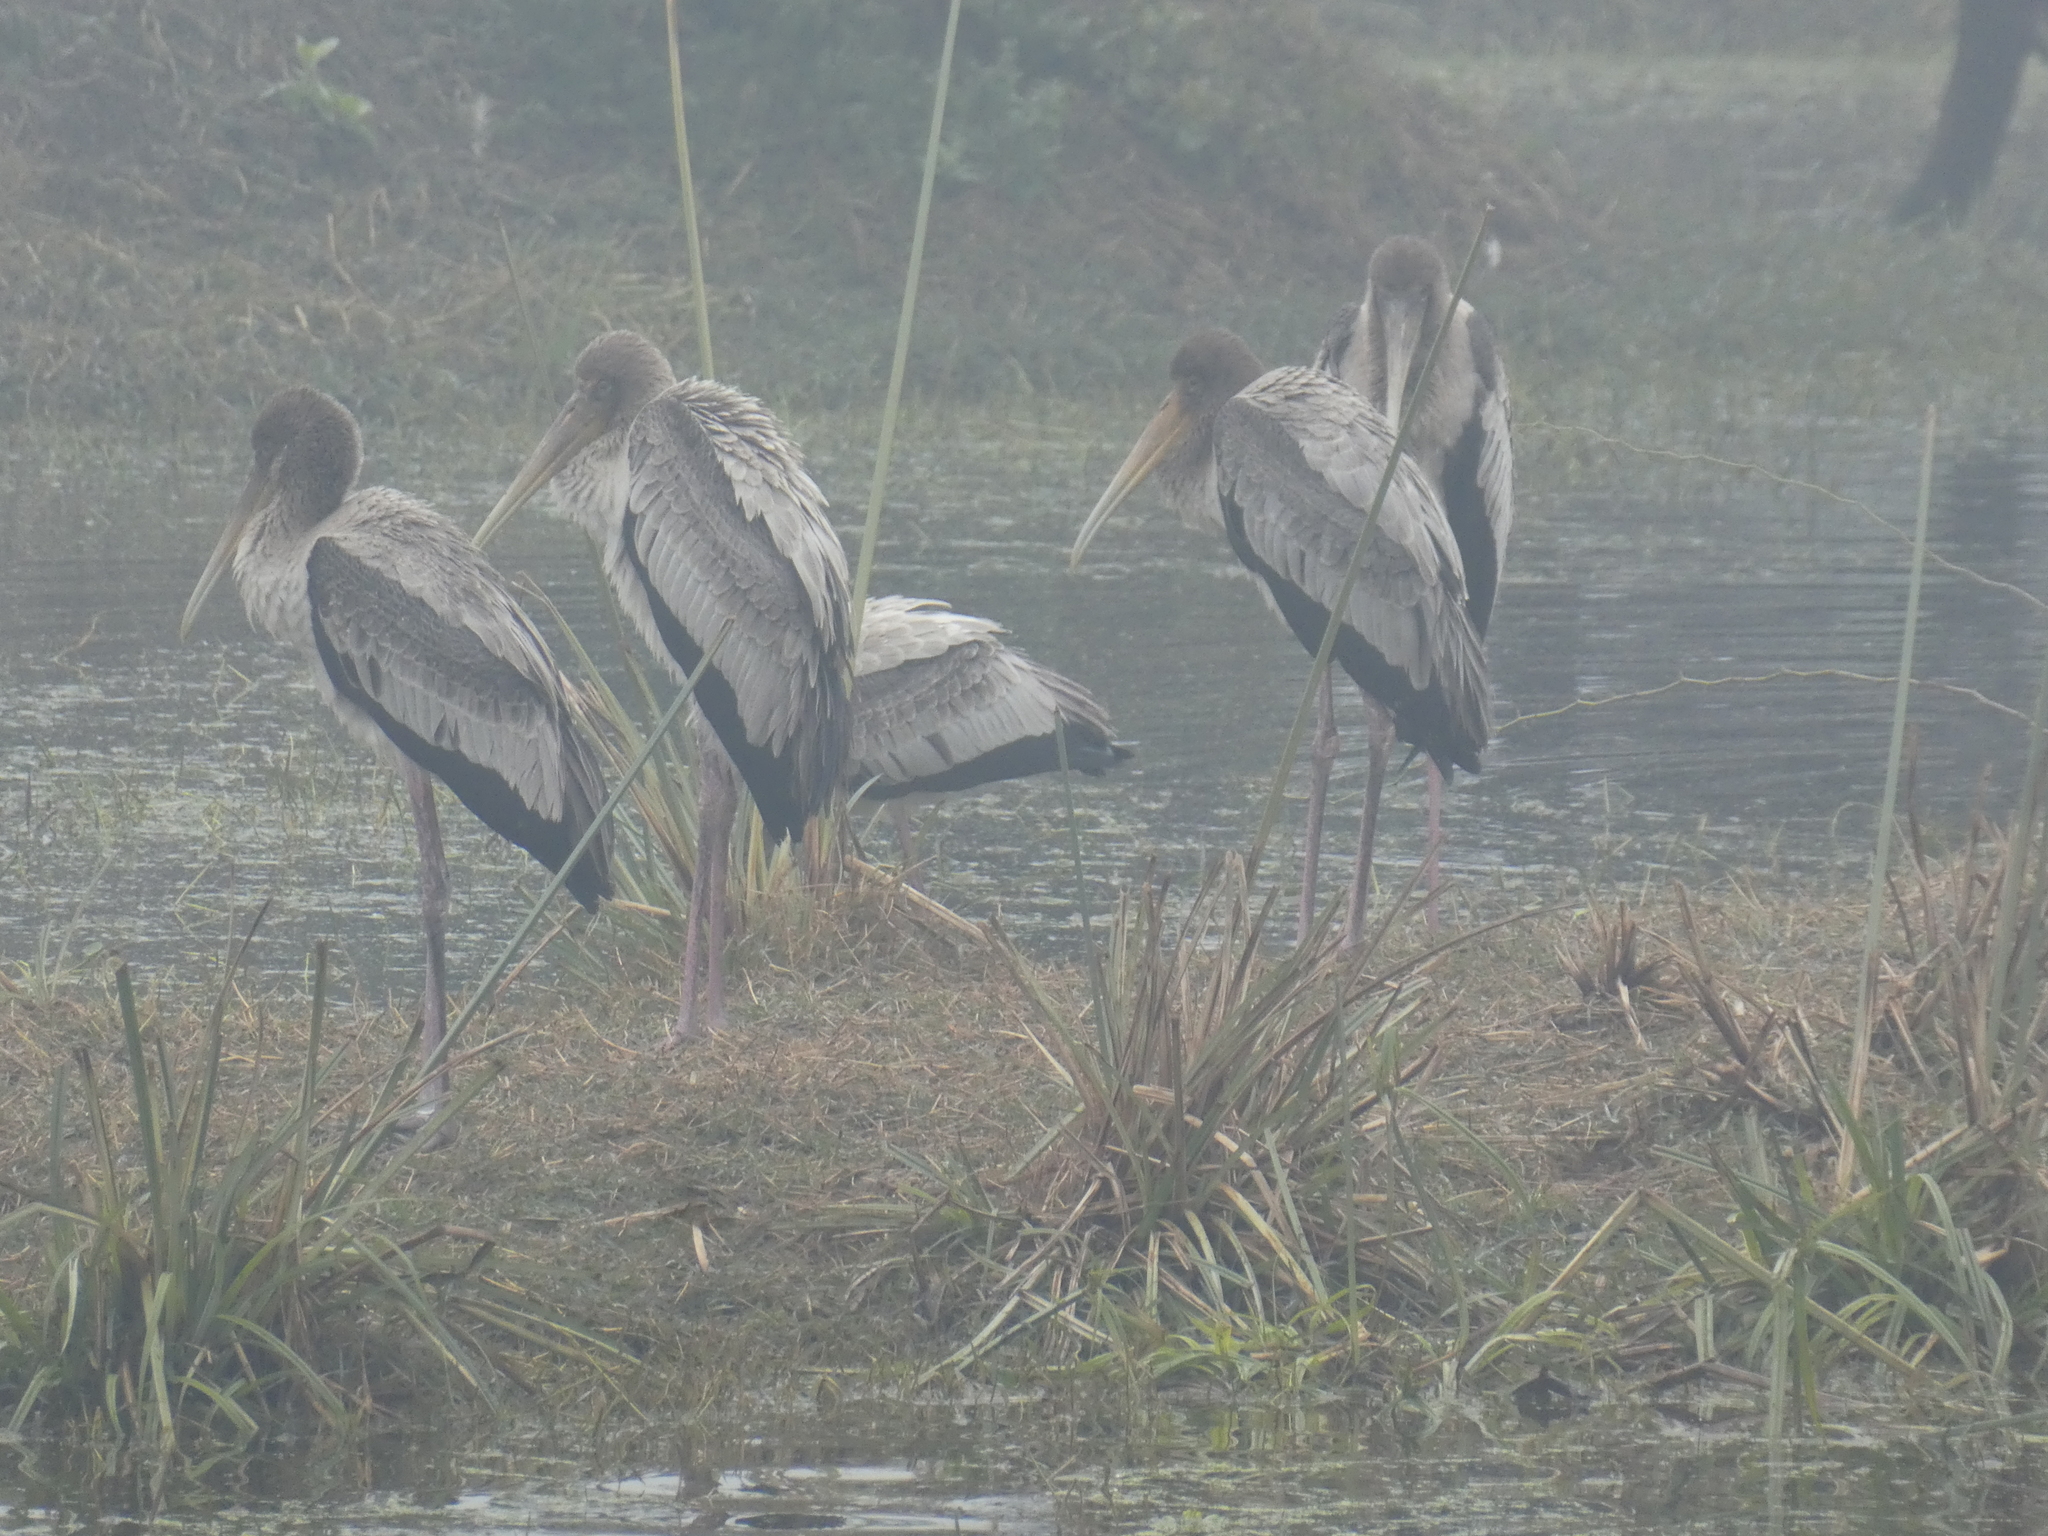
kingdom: Animalia
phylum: Chordata
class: Aves
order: Ciconiiformes
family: Ciconiidae
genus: Mycteria
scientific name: Mycteria leucocephala
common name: Painted stork
